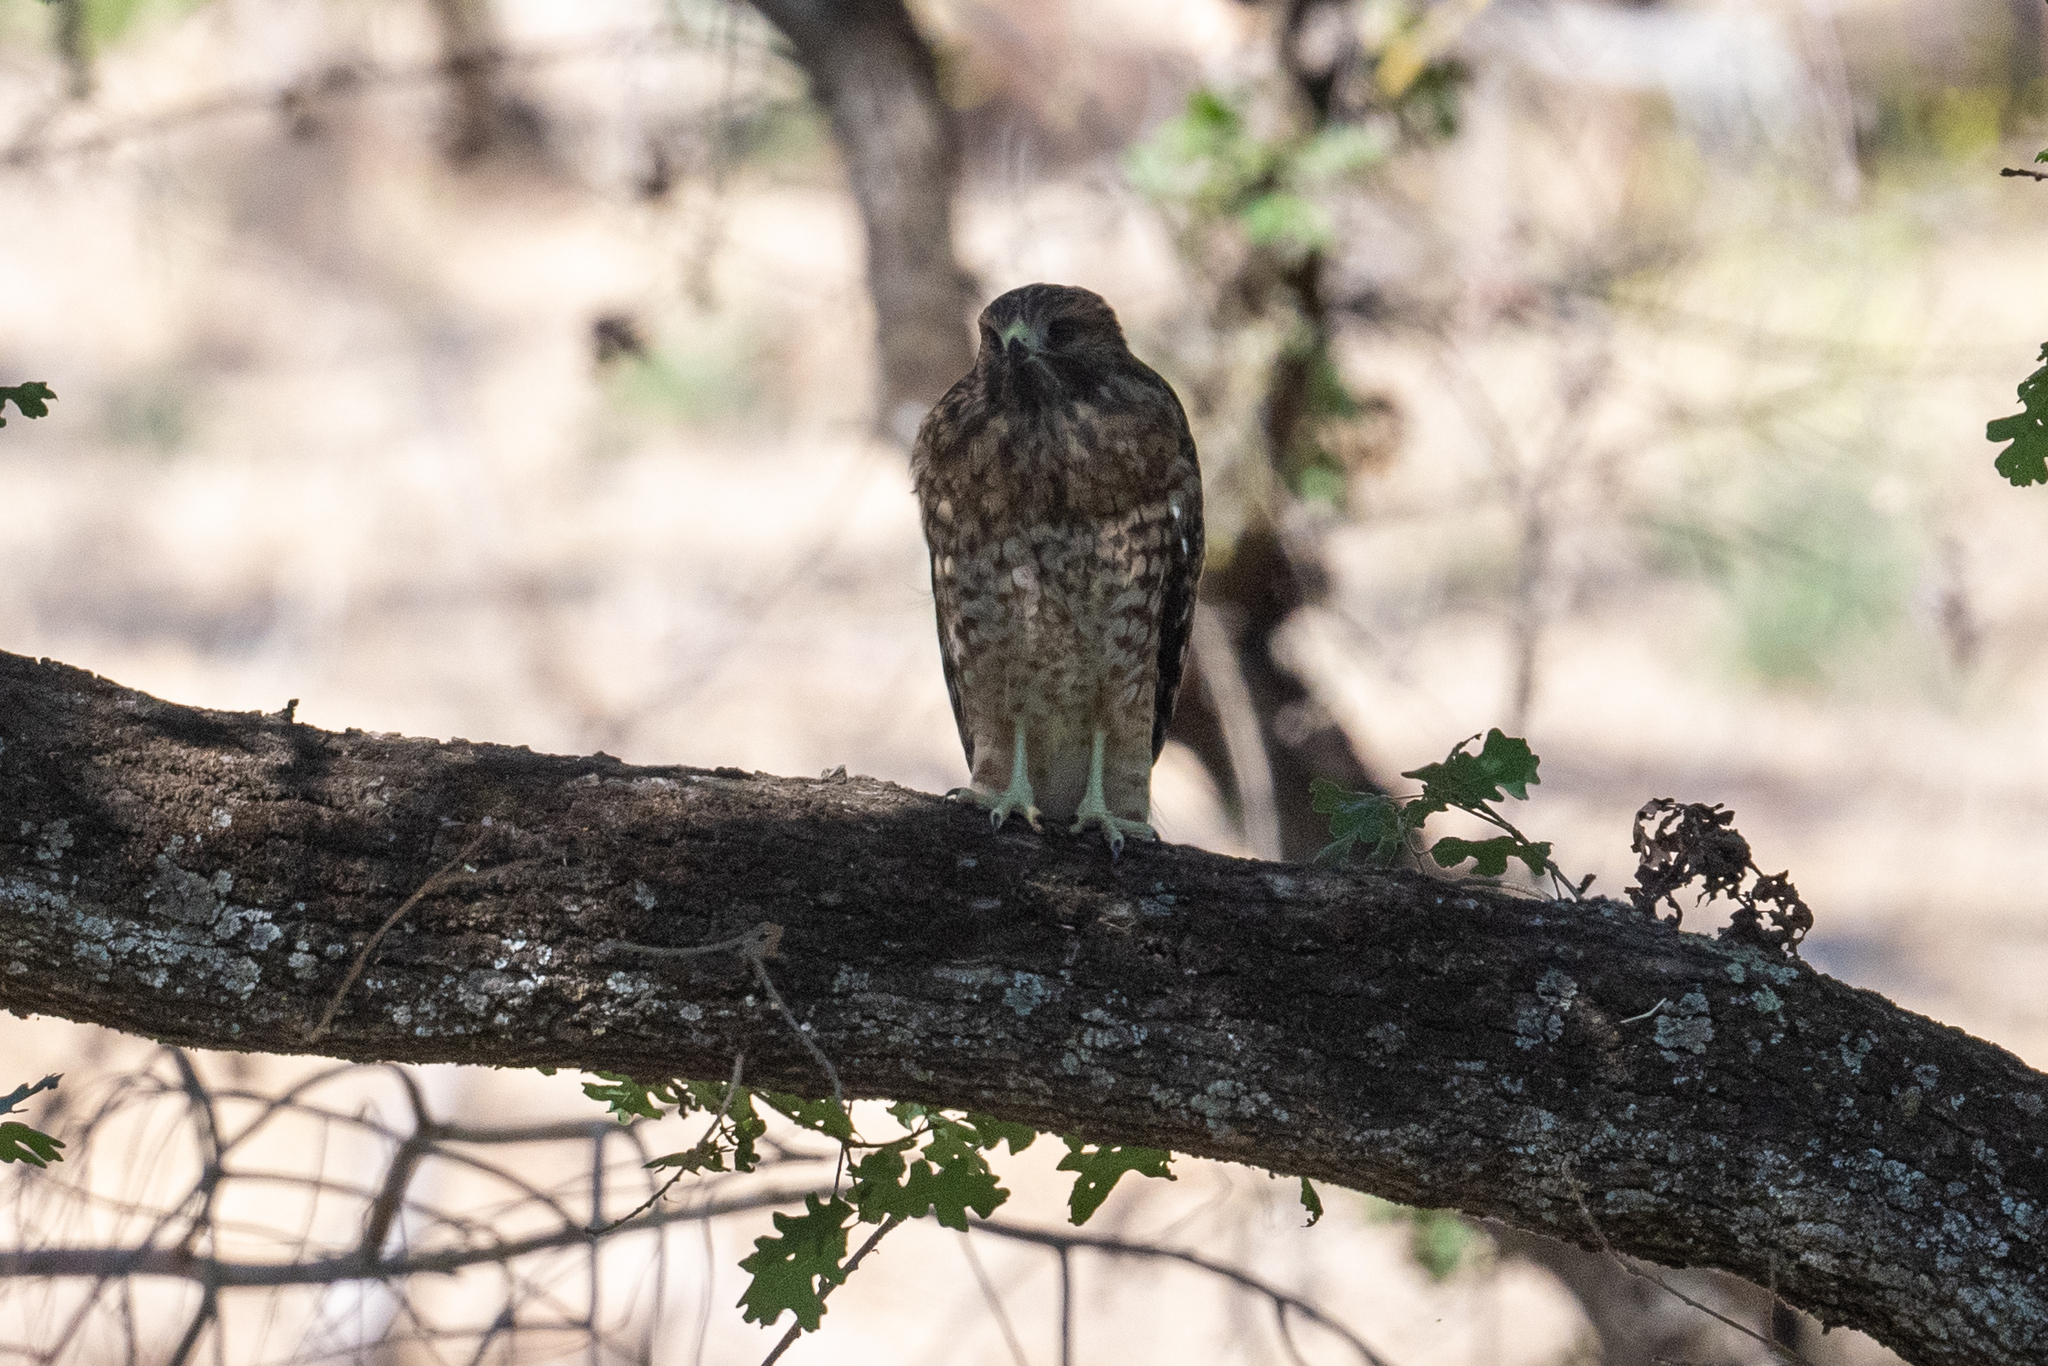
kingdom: Animalia
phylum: Chordata
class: Aves
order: Accipitriformes
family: Accipitridae
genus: Buteo
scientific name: Buteo lineatus
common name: Red-shouldered hawk
